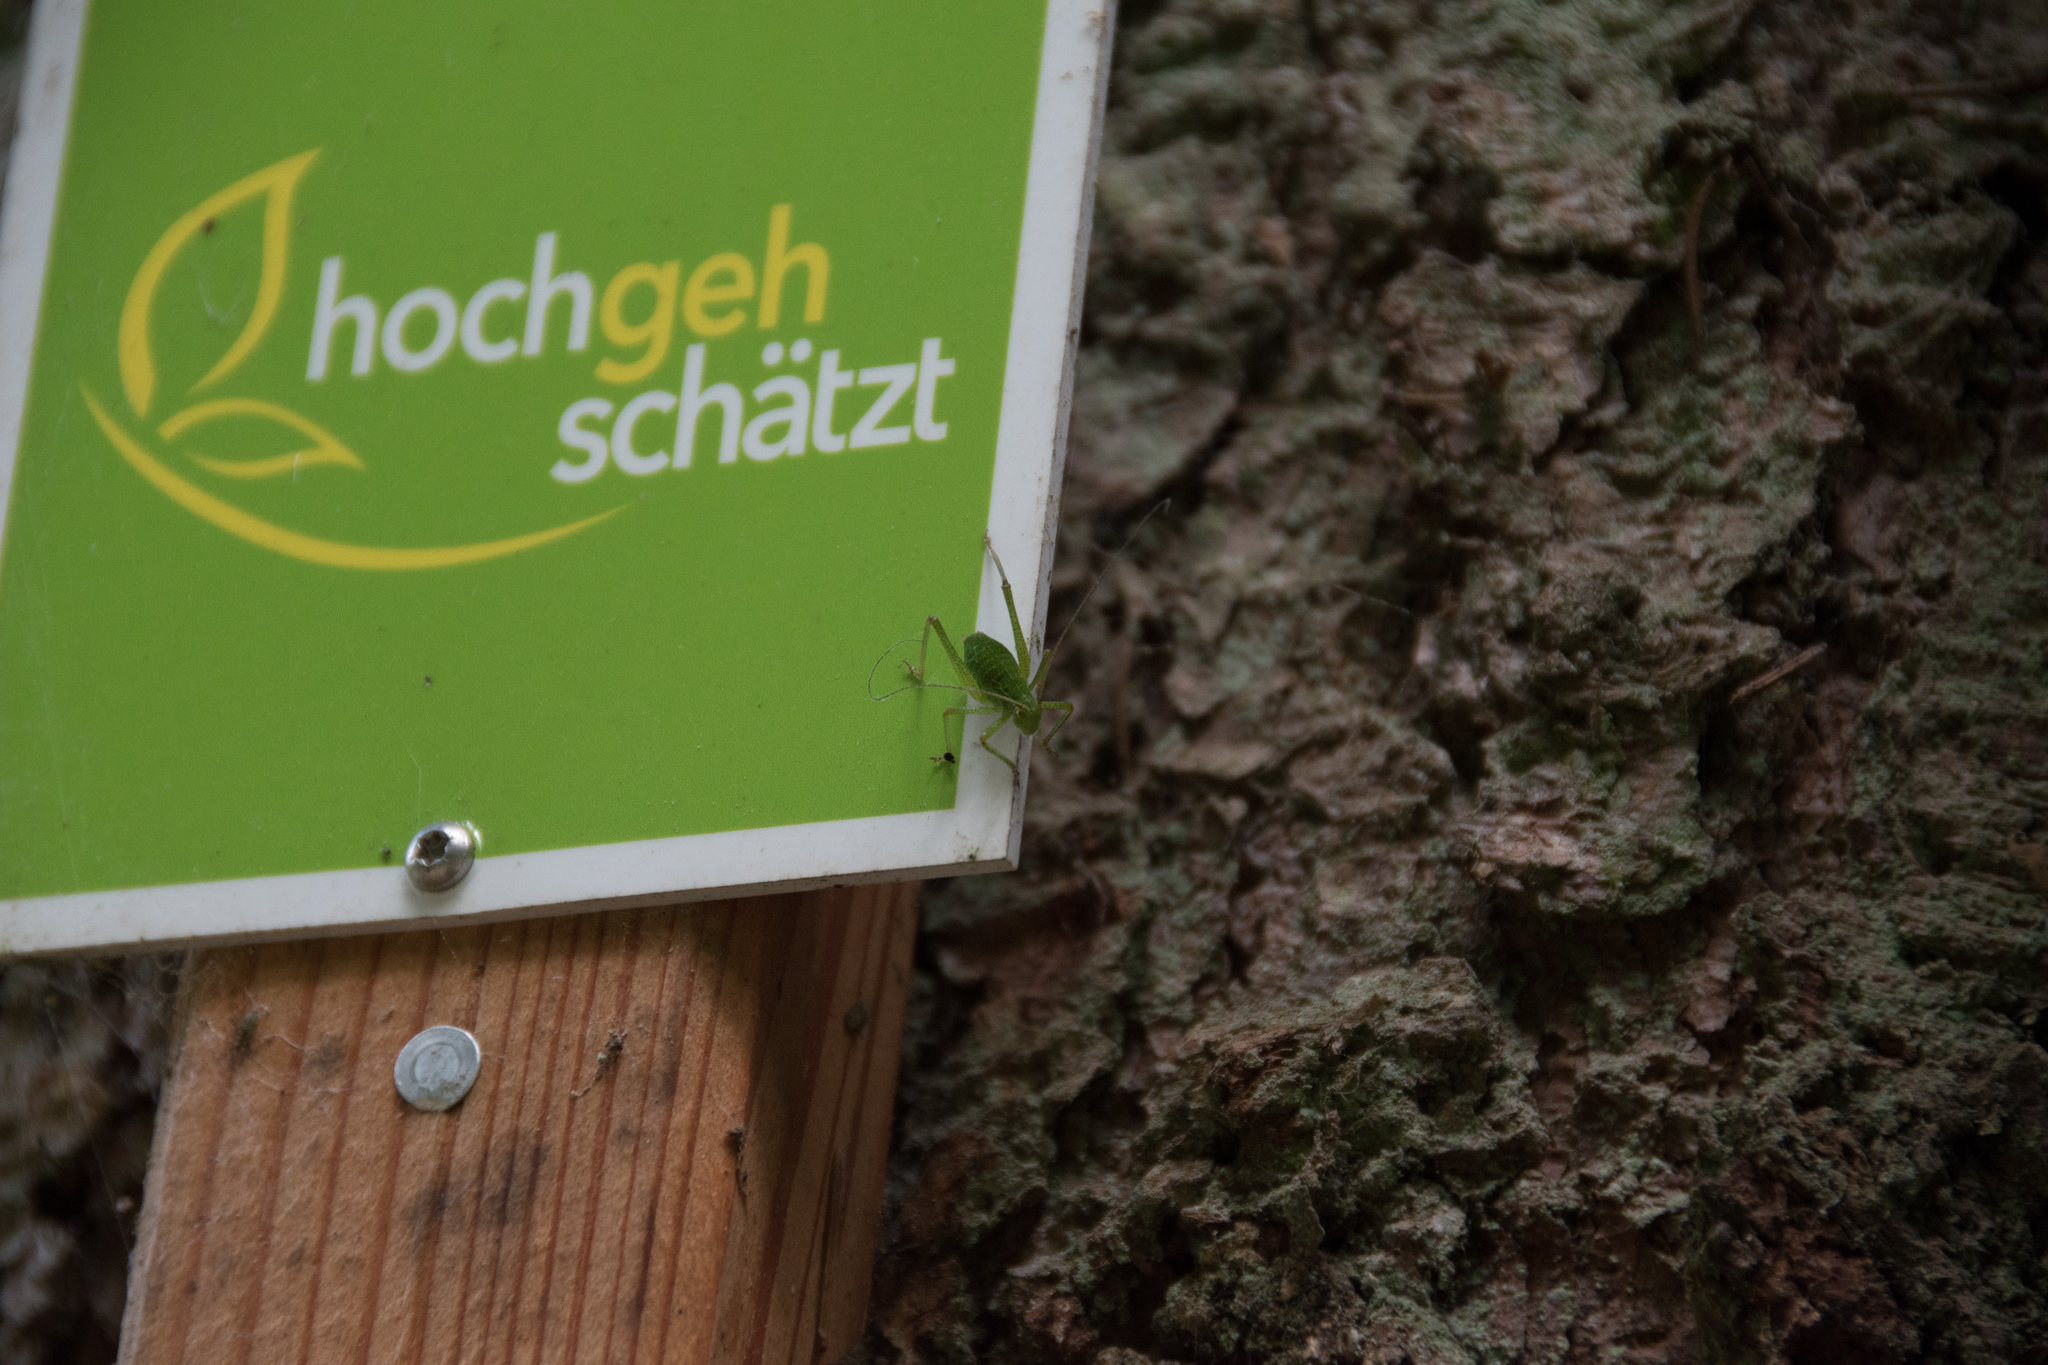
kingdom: Animalia
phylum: Arthropoda
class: Insecta
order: Orthoptera
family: Tettigoniidae
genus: Leptophyes
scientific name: Leptophyes punctatissima
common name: Speckled bush-cricket
